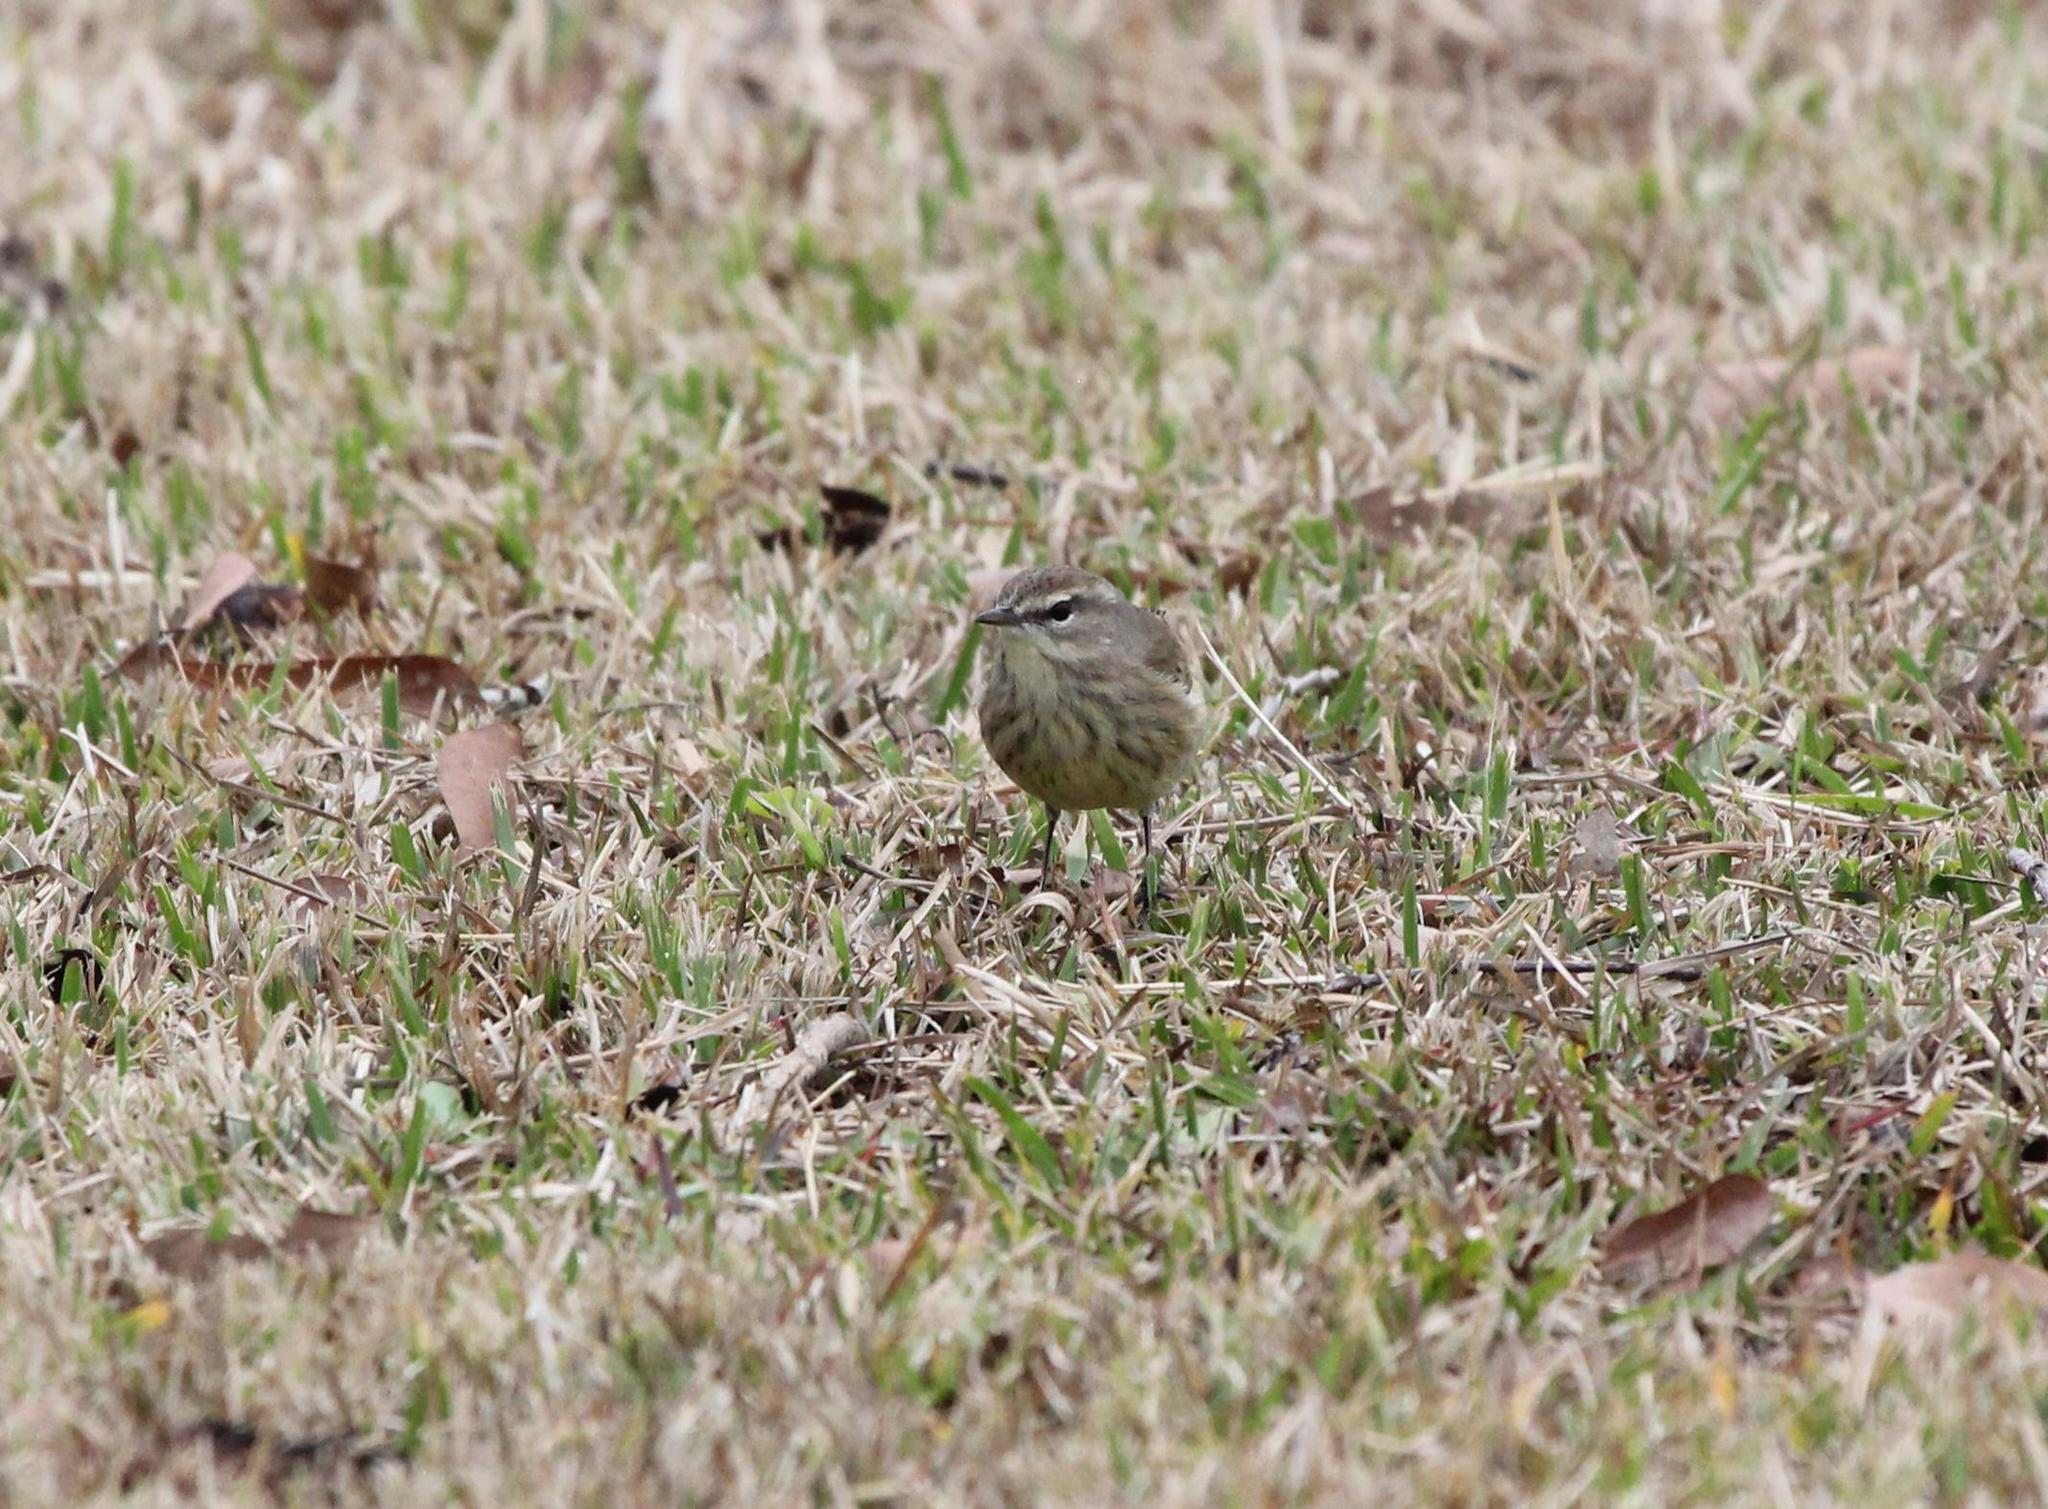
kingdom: Animalia
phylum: Chordata
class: Aves
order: Passeriformes
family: Parulidae
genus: Setophaga
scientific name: Setophaga palmarum
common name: Palm warbler
